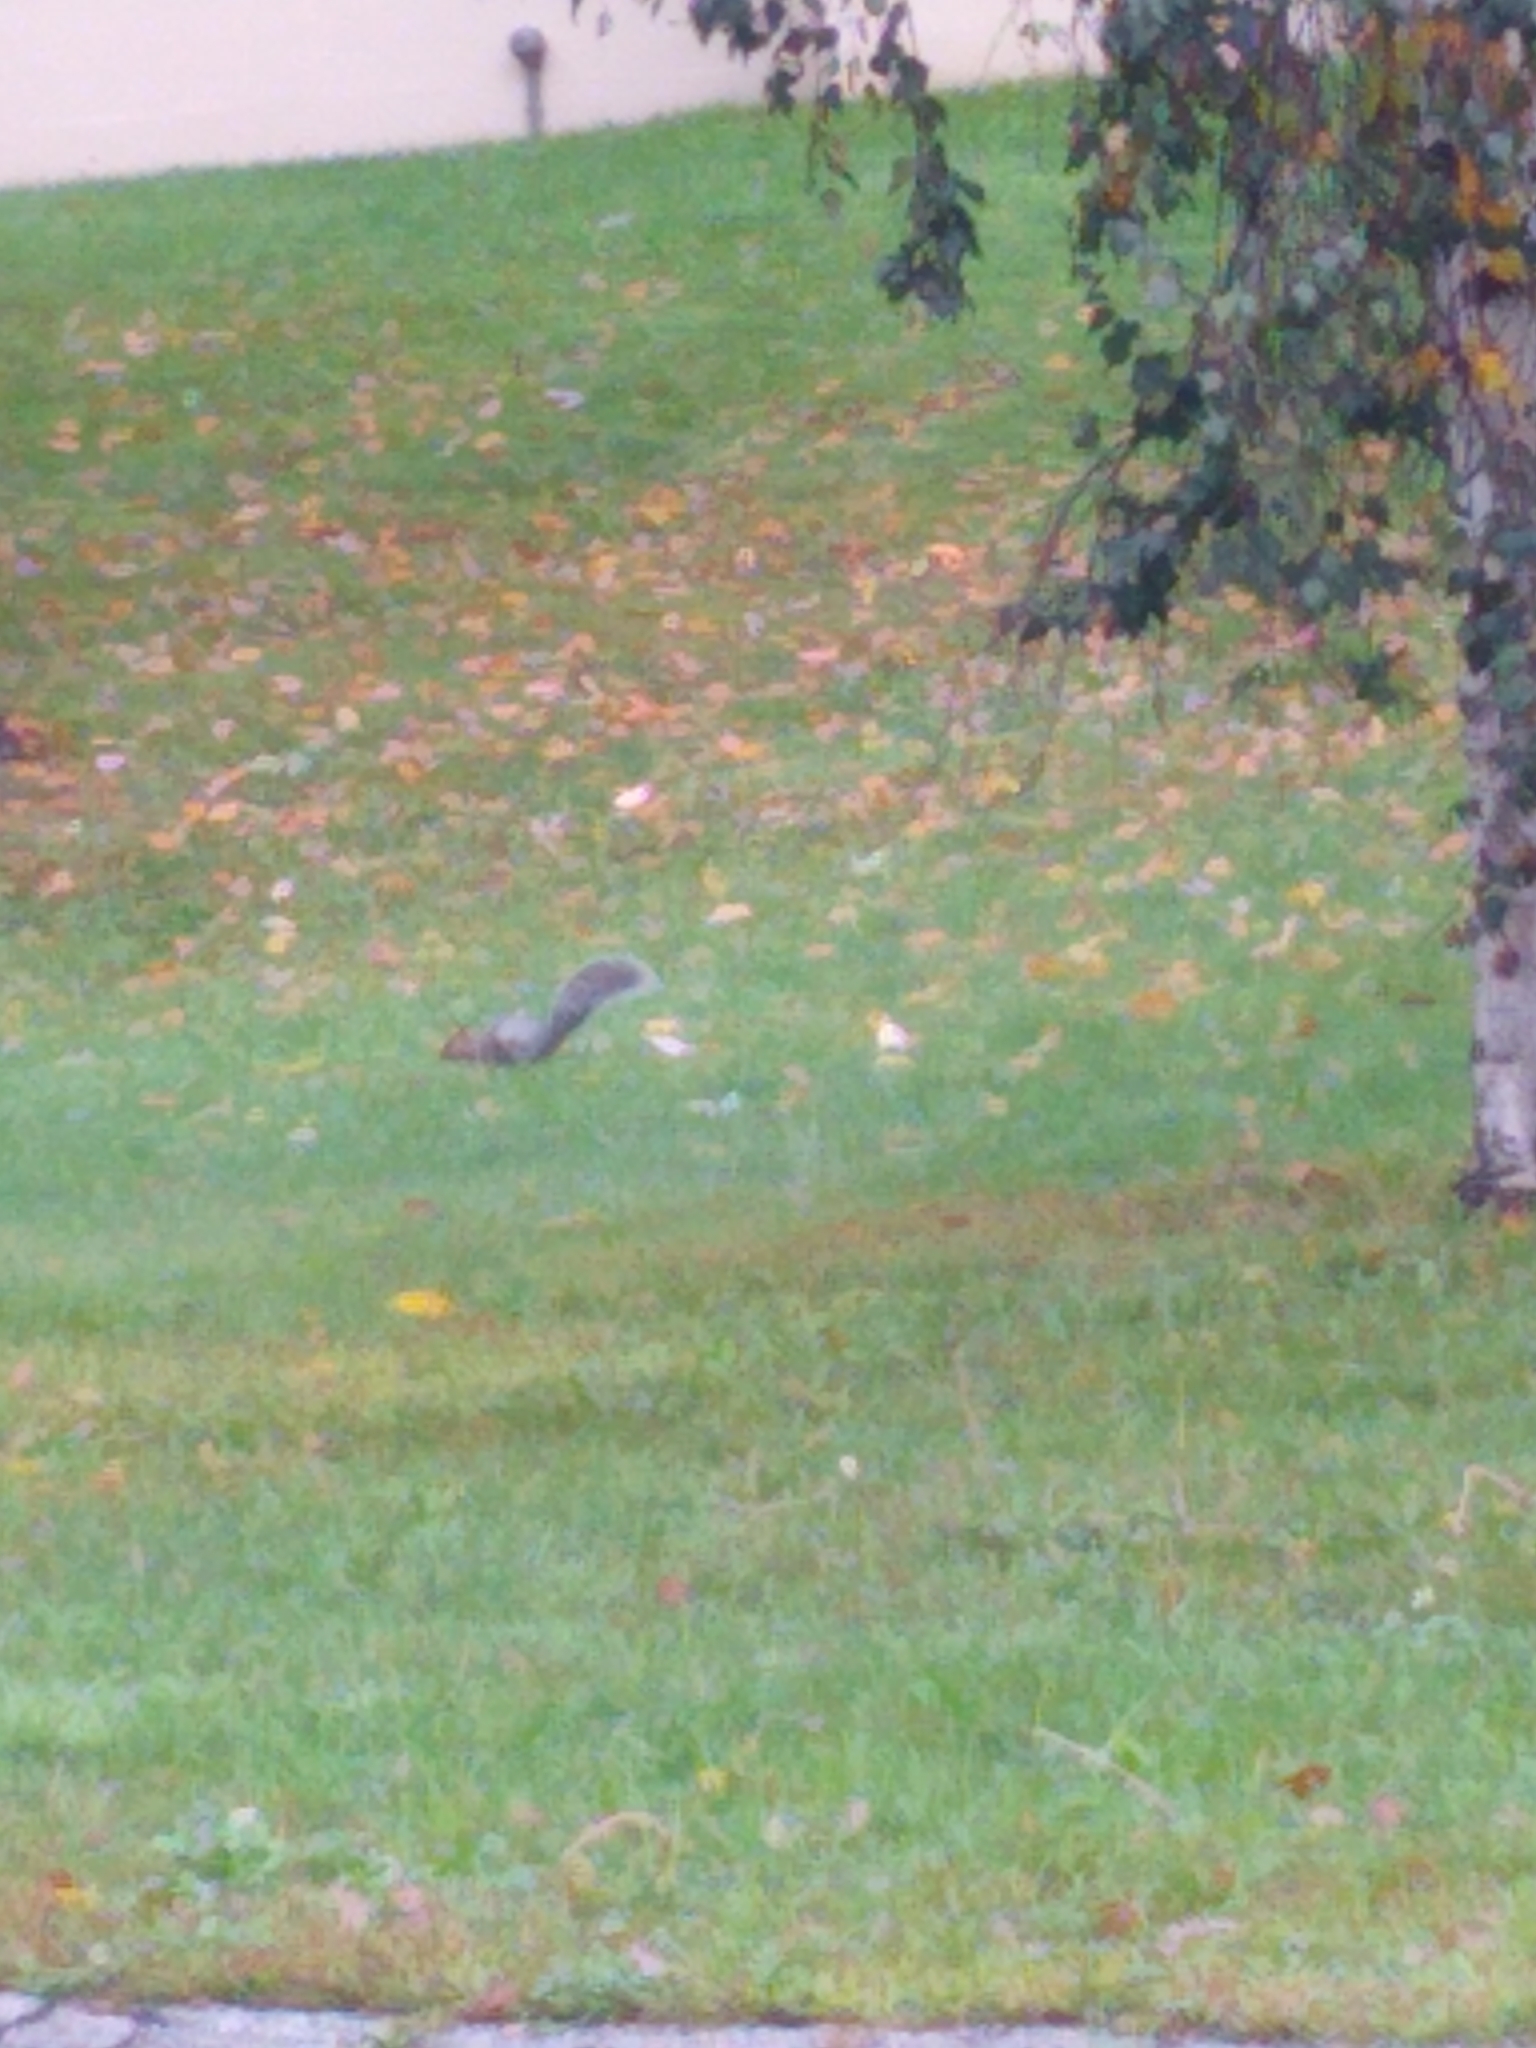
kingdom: Animalia
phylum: Chordata
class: Mammalia
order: Rodentia
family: Sciuridae
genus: Sciurus
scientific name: Sciurus carolinensis
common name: Eastern gray squirrel
